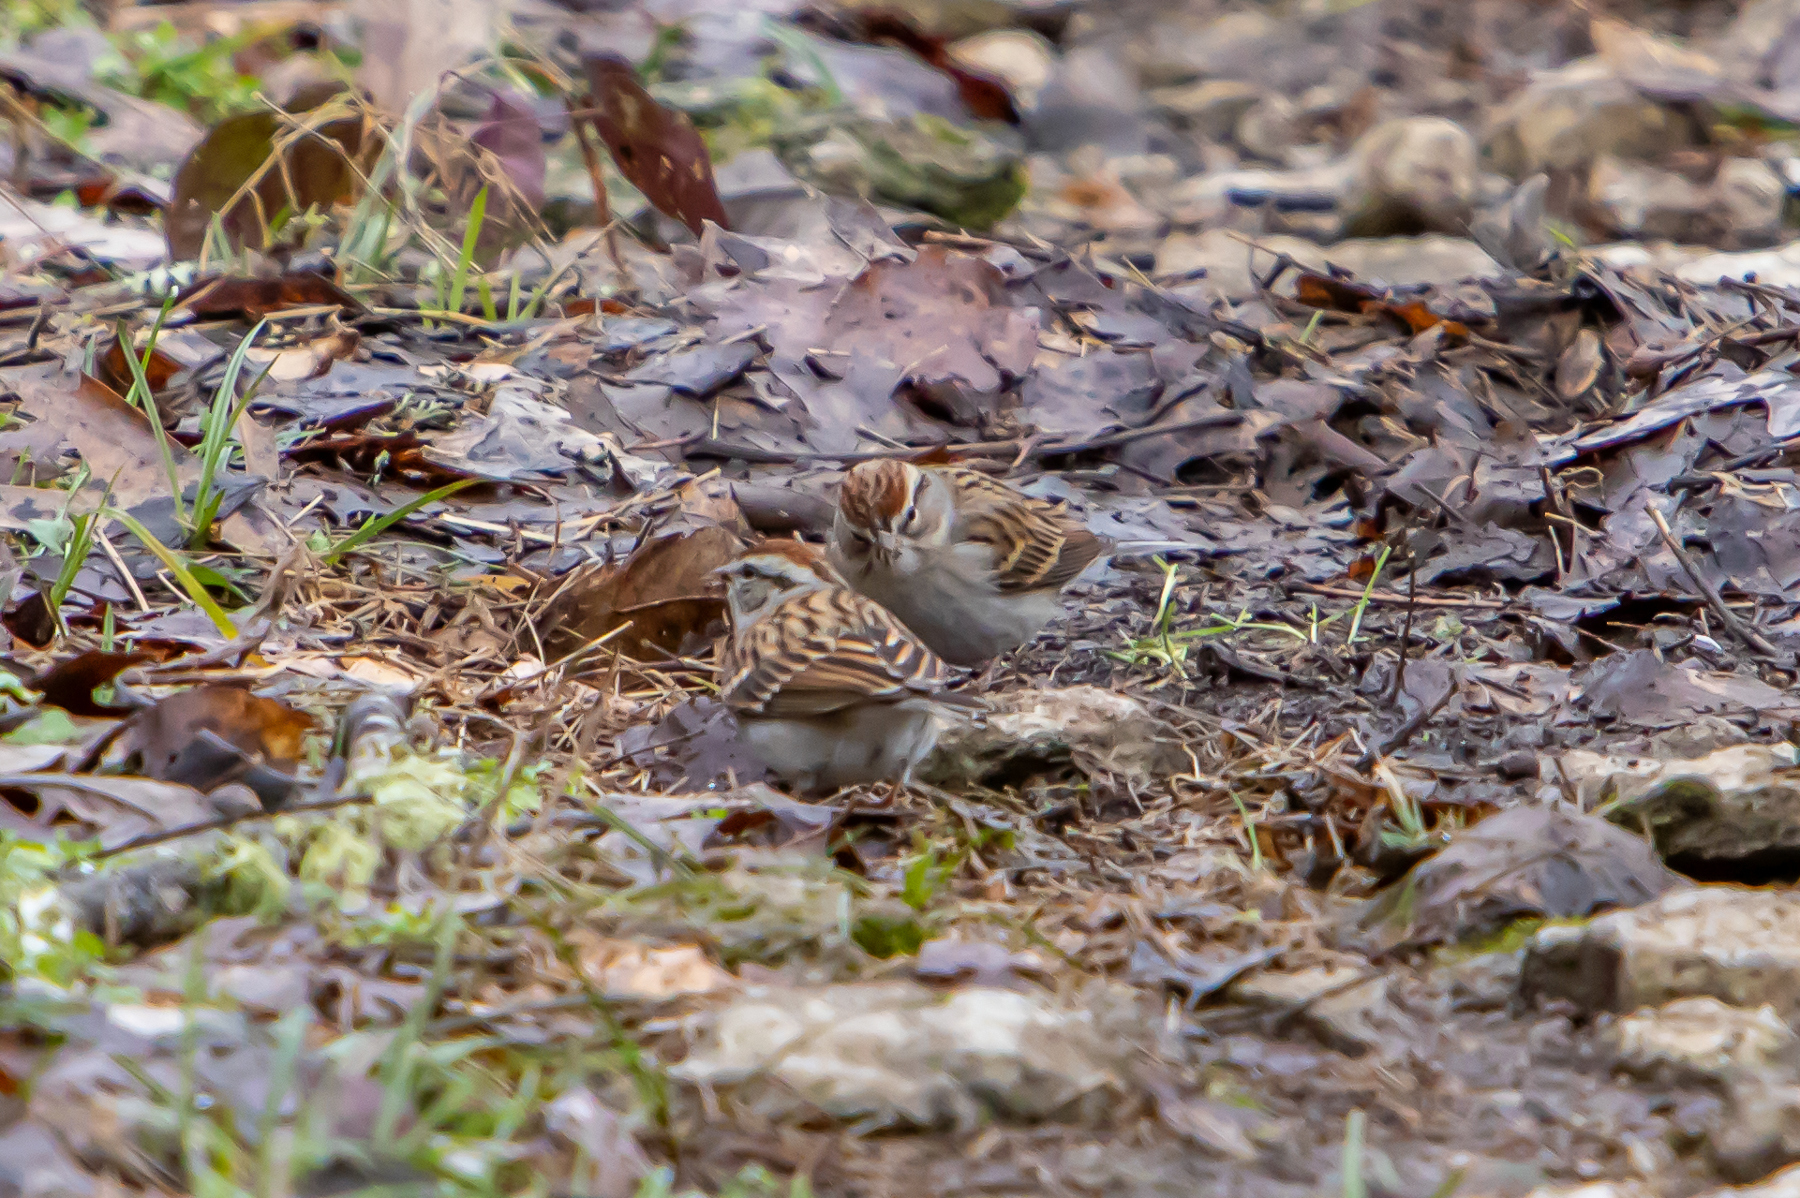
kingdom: Animalia
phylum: Chordata
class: Aves
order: Passeriformes
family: Passerellidae
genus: Spizella
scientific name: Spizella passerina
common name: Chipping sparrow
